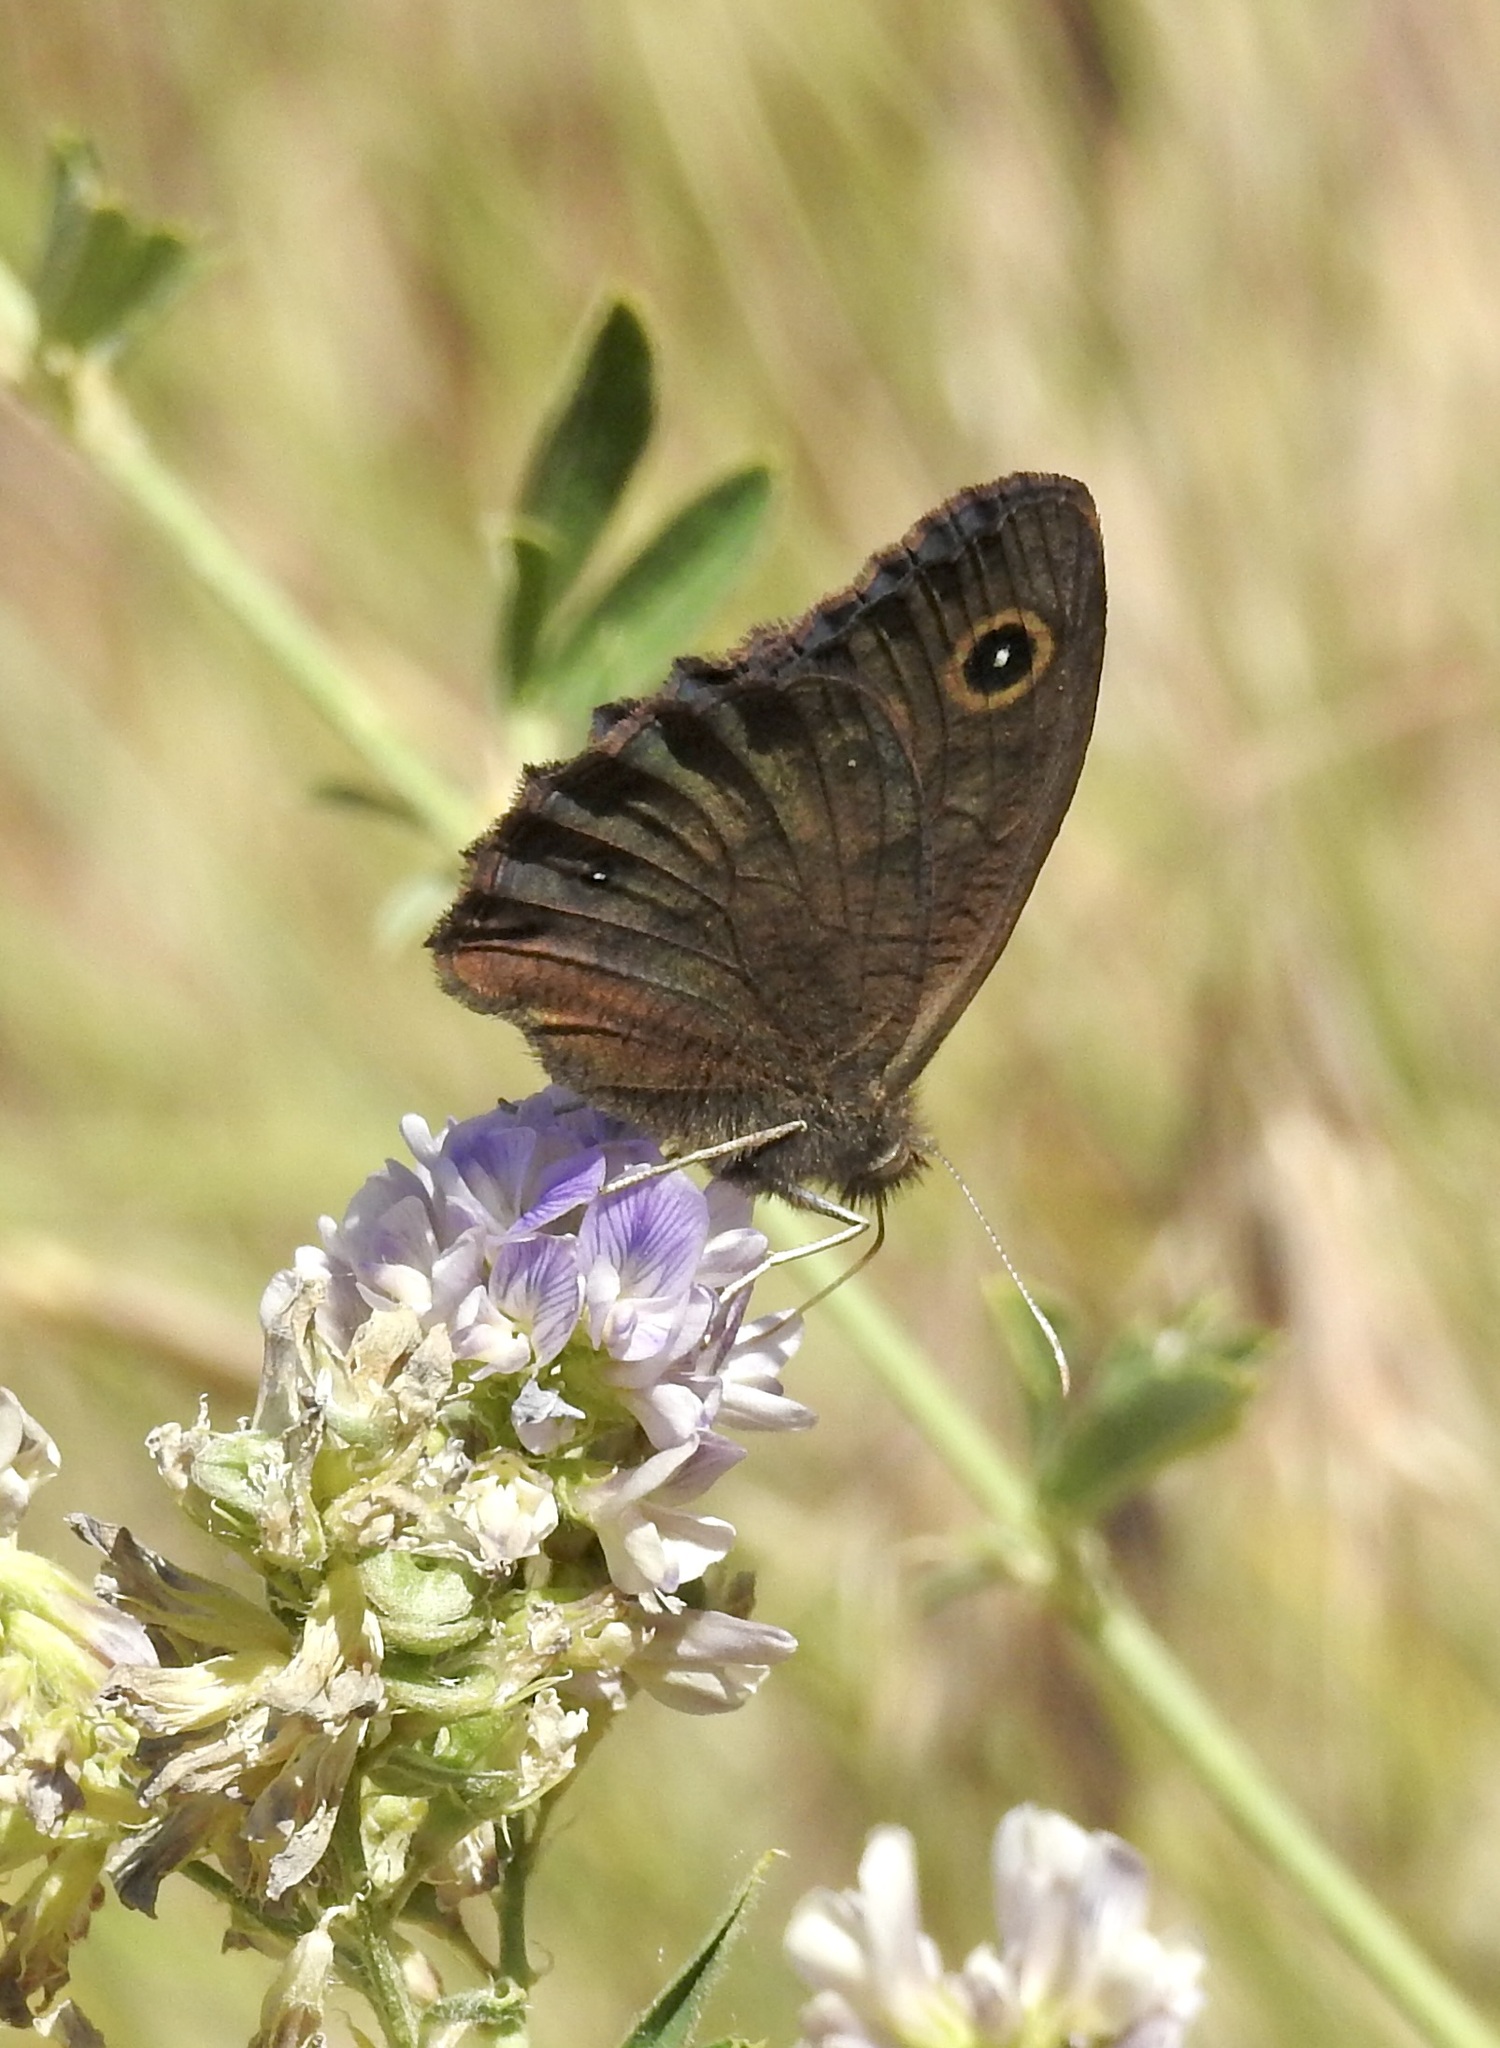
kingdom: Animalia
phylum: Arthropoda
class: Insecta
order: Lepidoptera
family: Nymphalidae
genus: Cercyonis
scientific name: Cercyonis pegala
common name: Common wood-nymph
